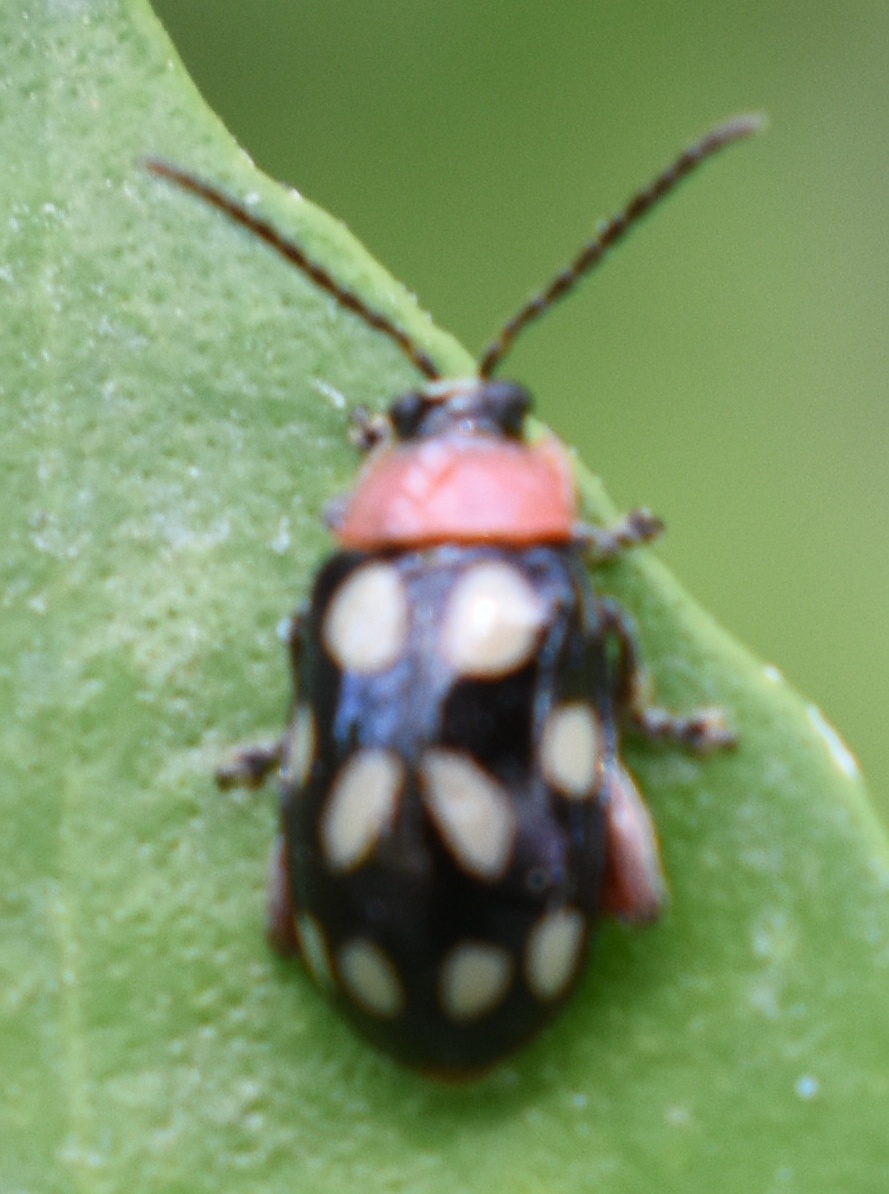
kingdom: Animalia
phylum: Arthropoda
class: Insecta
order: Coleoptera
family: Chrysomelidae
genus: Omophoita
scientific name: Omophoita
